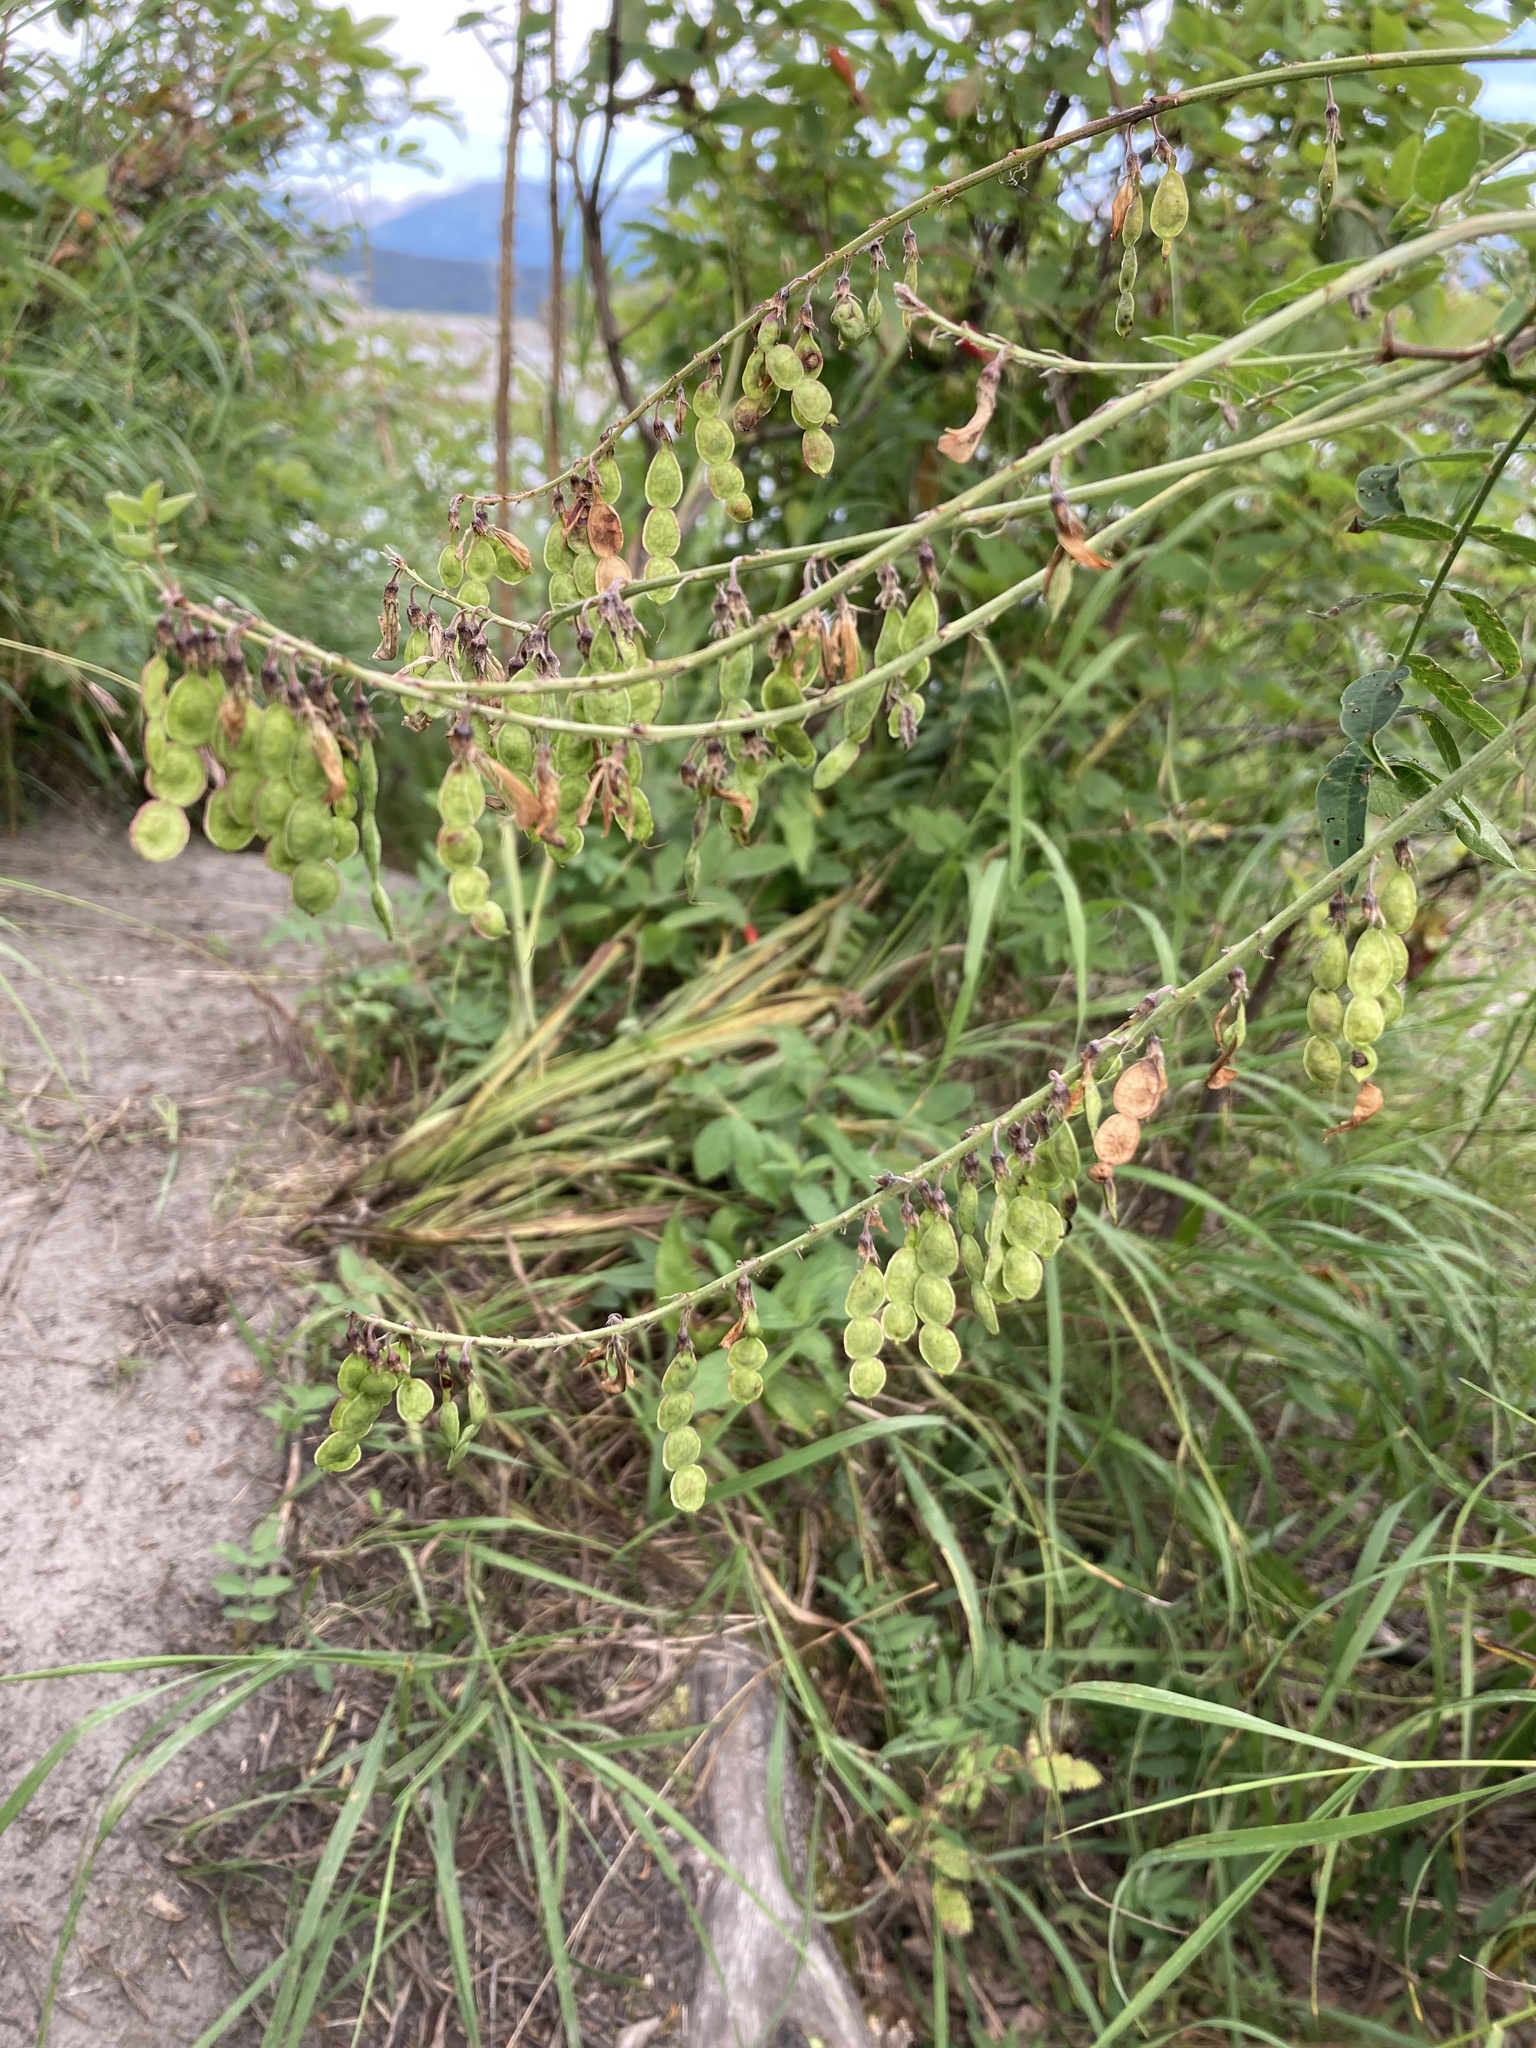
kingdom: Plantae
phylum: Tracheophyta
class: Magnoliopsida
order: Fabales
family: Fabaceae
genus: Hedysarum
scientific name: Hedysarum alpinum
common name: Alpine sweet-vetch
